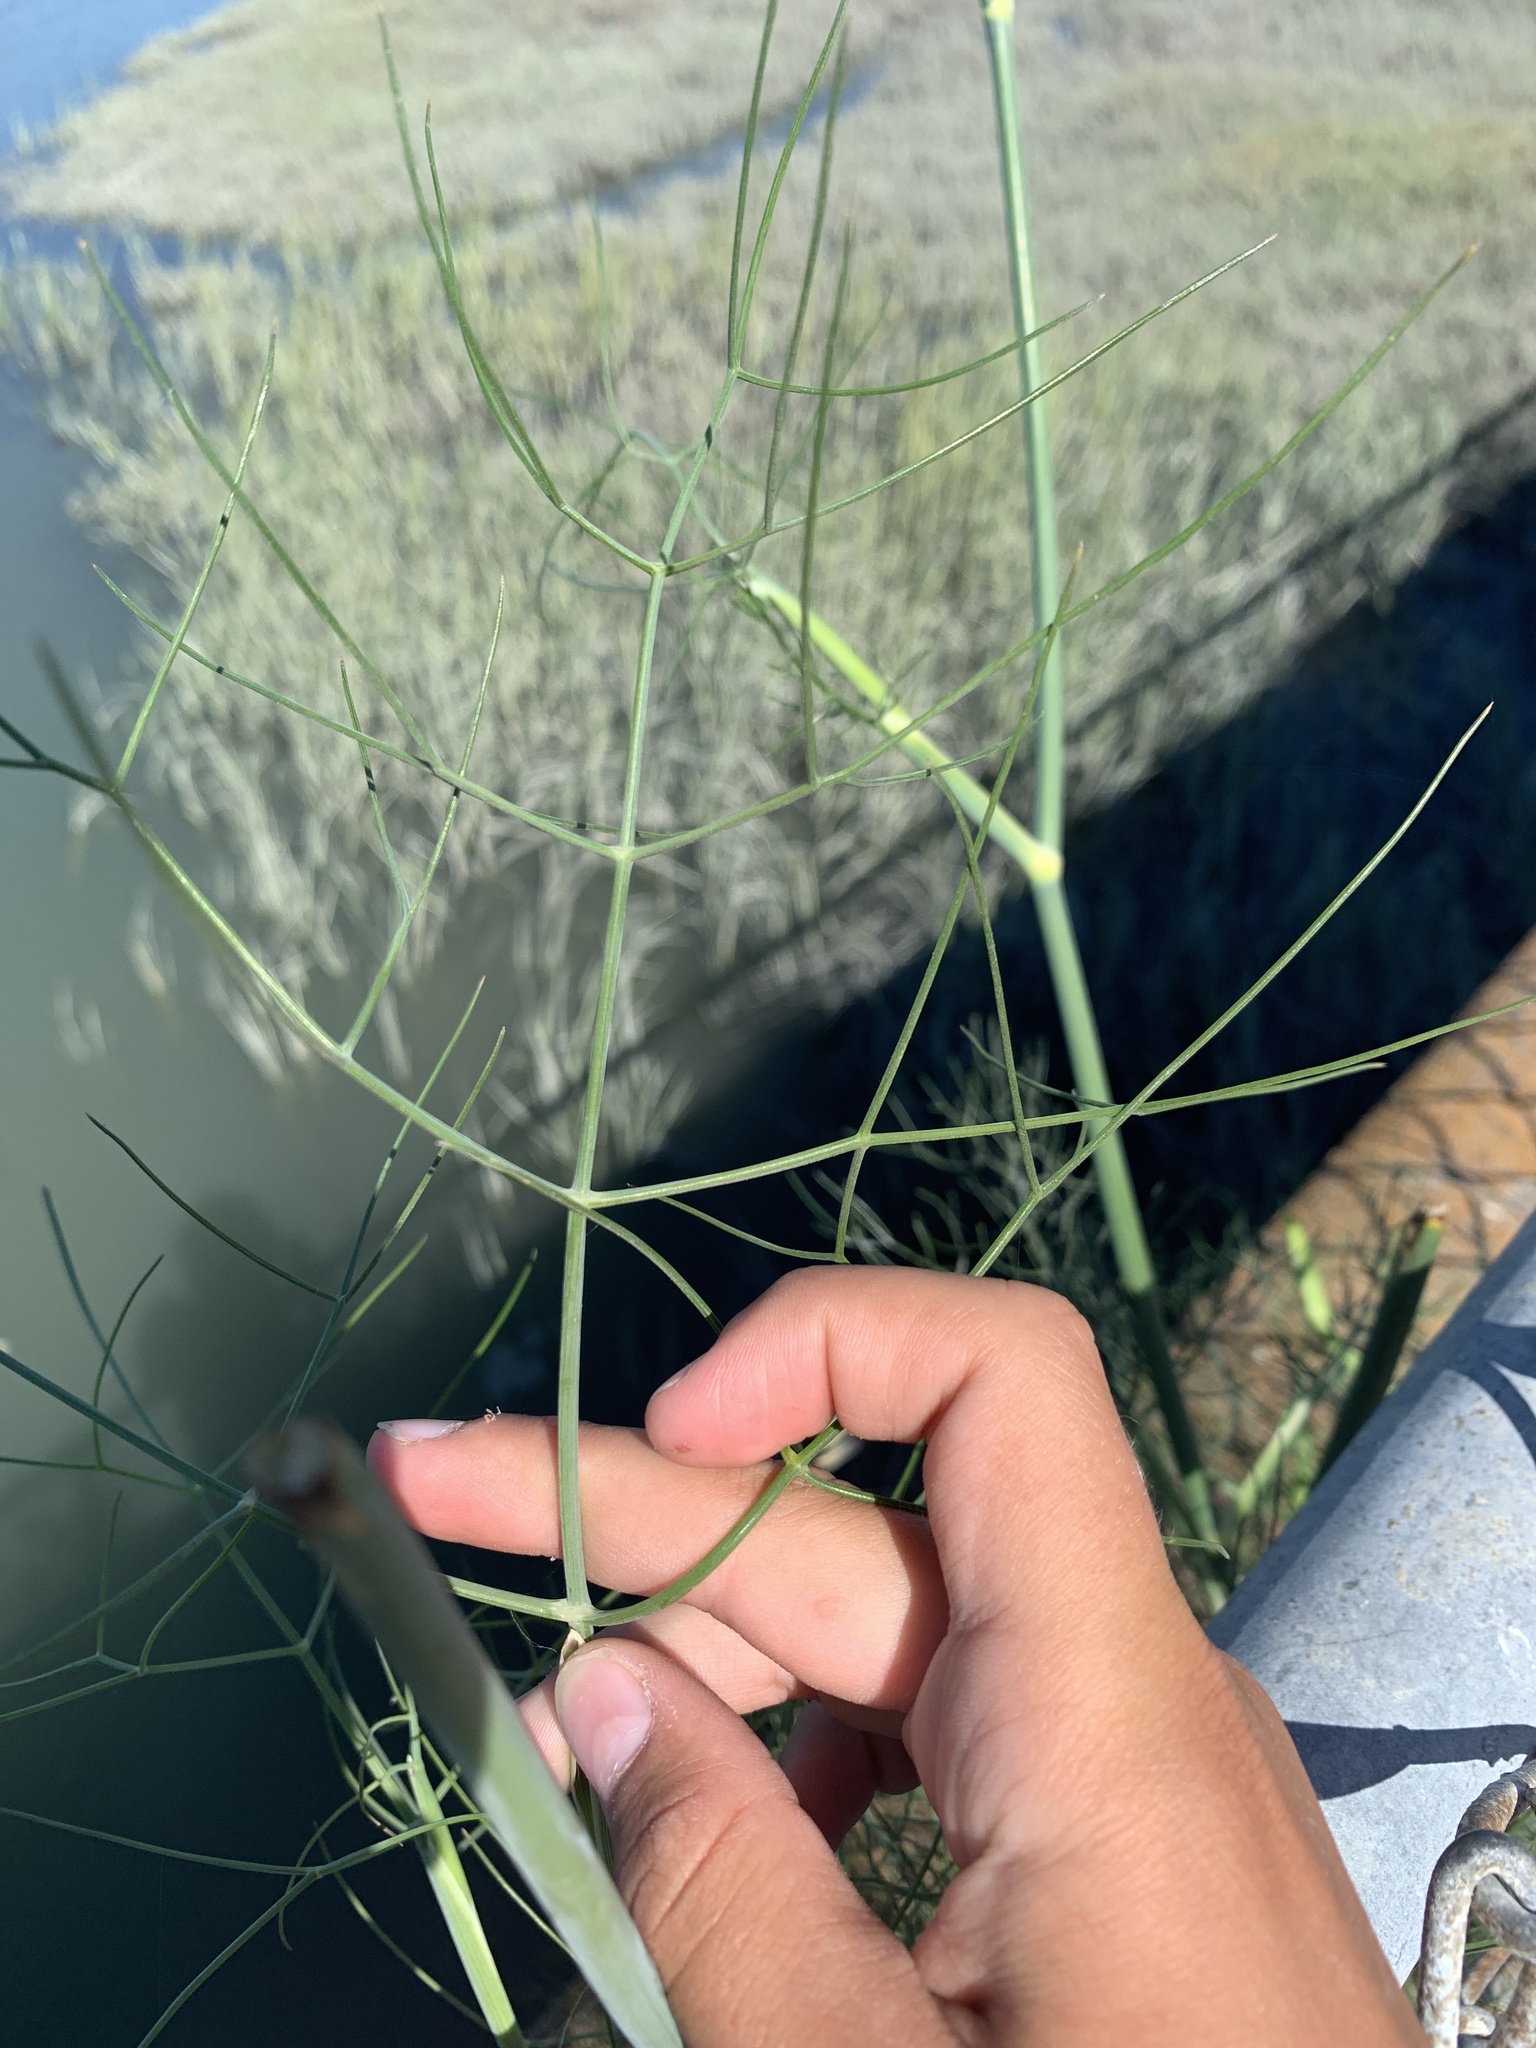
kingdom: Plantae
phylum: Tracheophyta
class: Magnoliopsida
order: Apiales
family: Apiaceae
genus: Foeniculum
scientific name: Foeniculum vulgare
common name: Fennel
